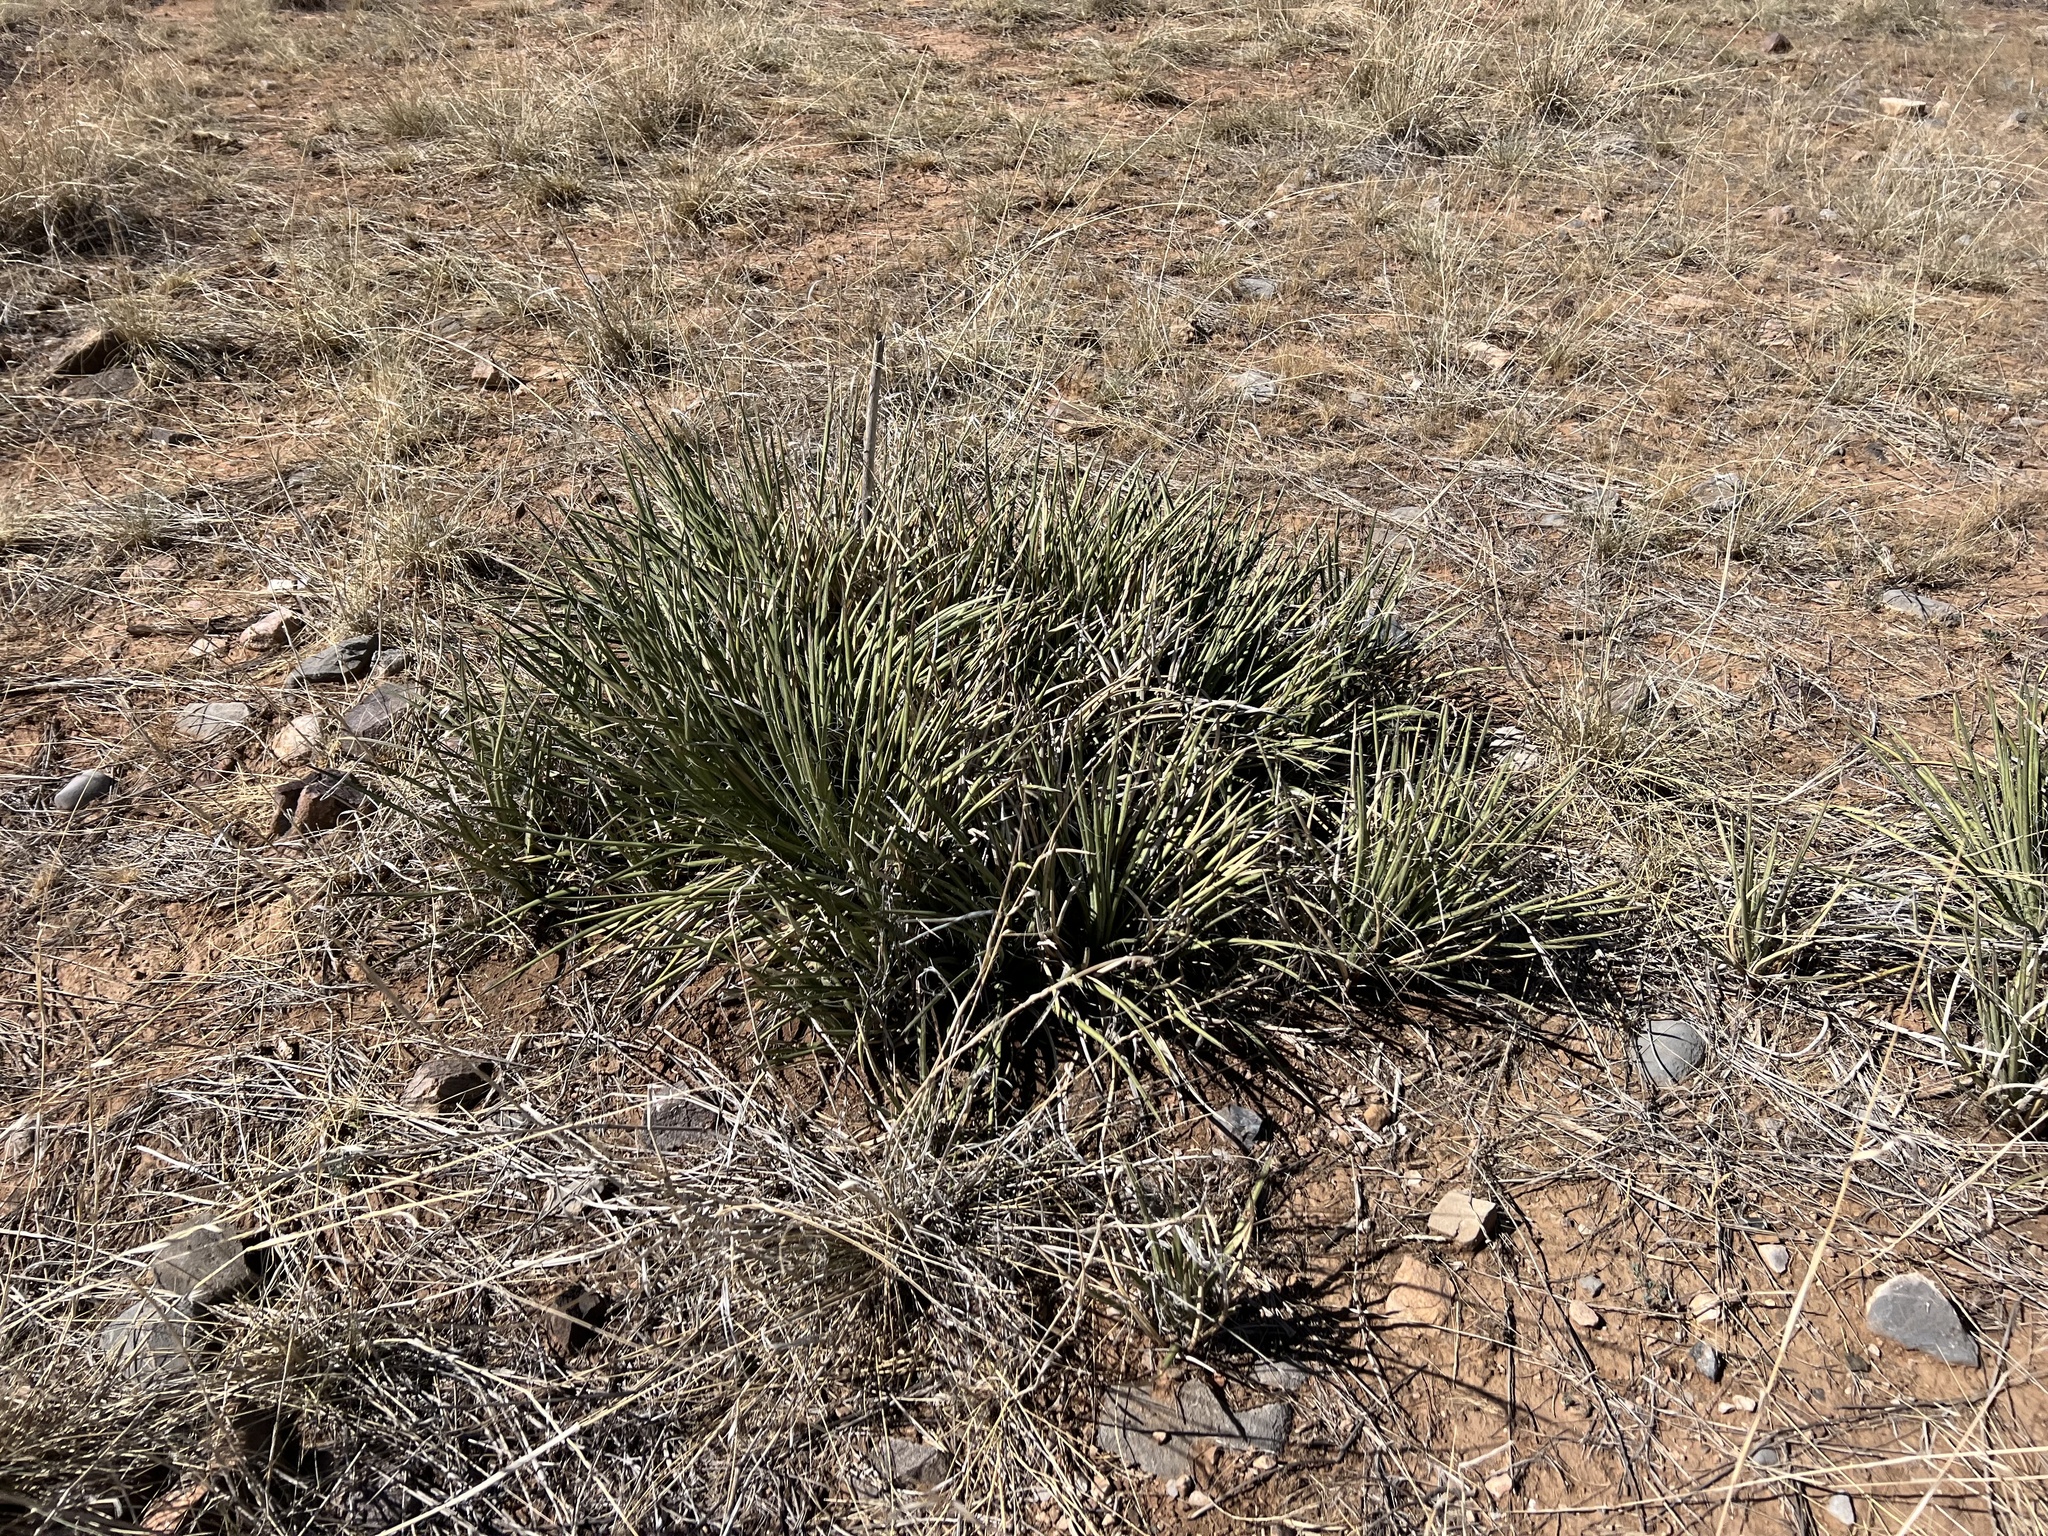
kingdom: Plantae
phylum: Tracheophyta
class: Liliopsida
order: Asparagales
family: Asparagaceae
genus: Agave
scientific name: Agave schottii
